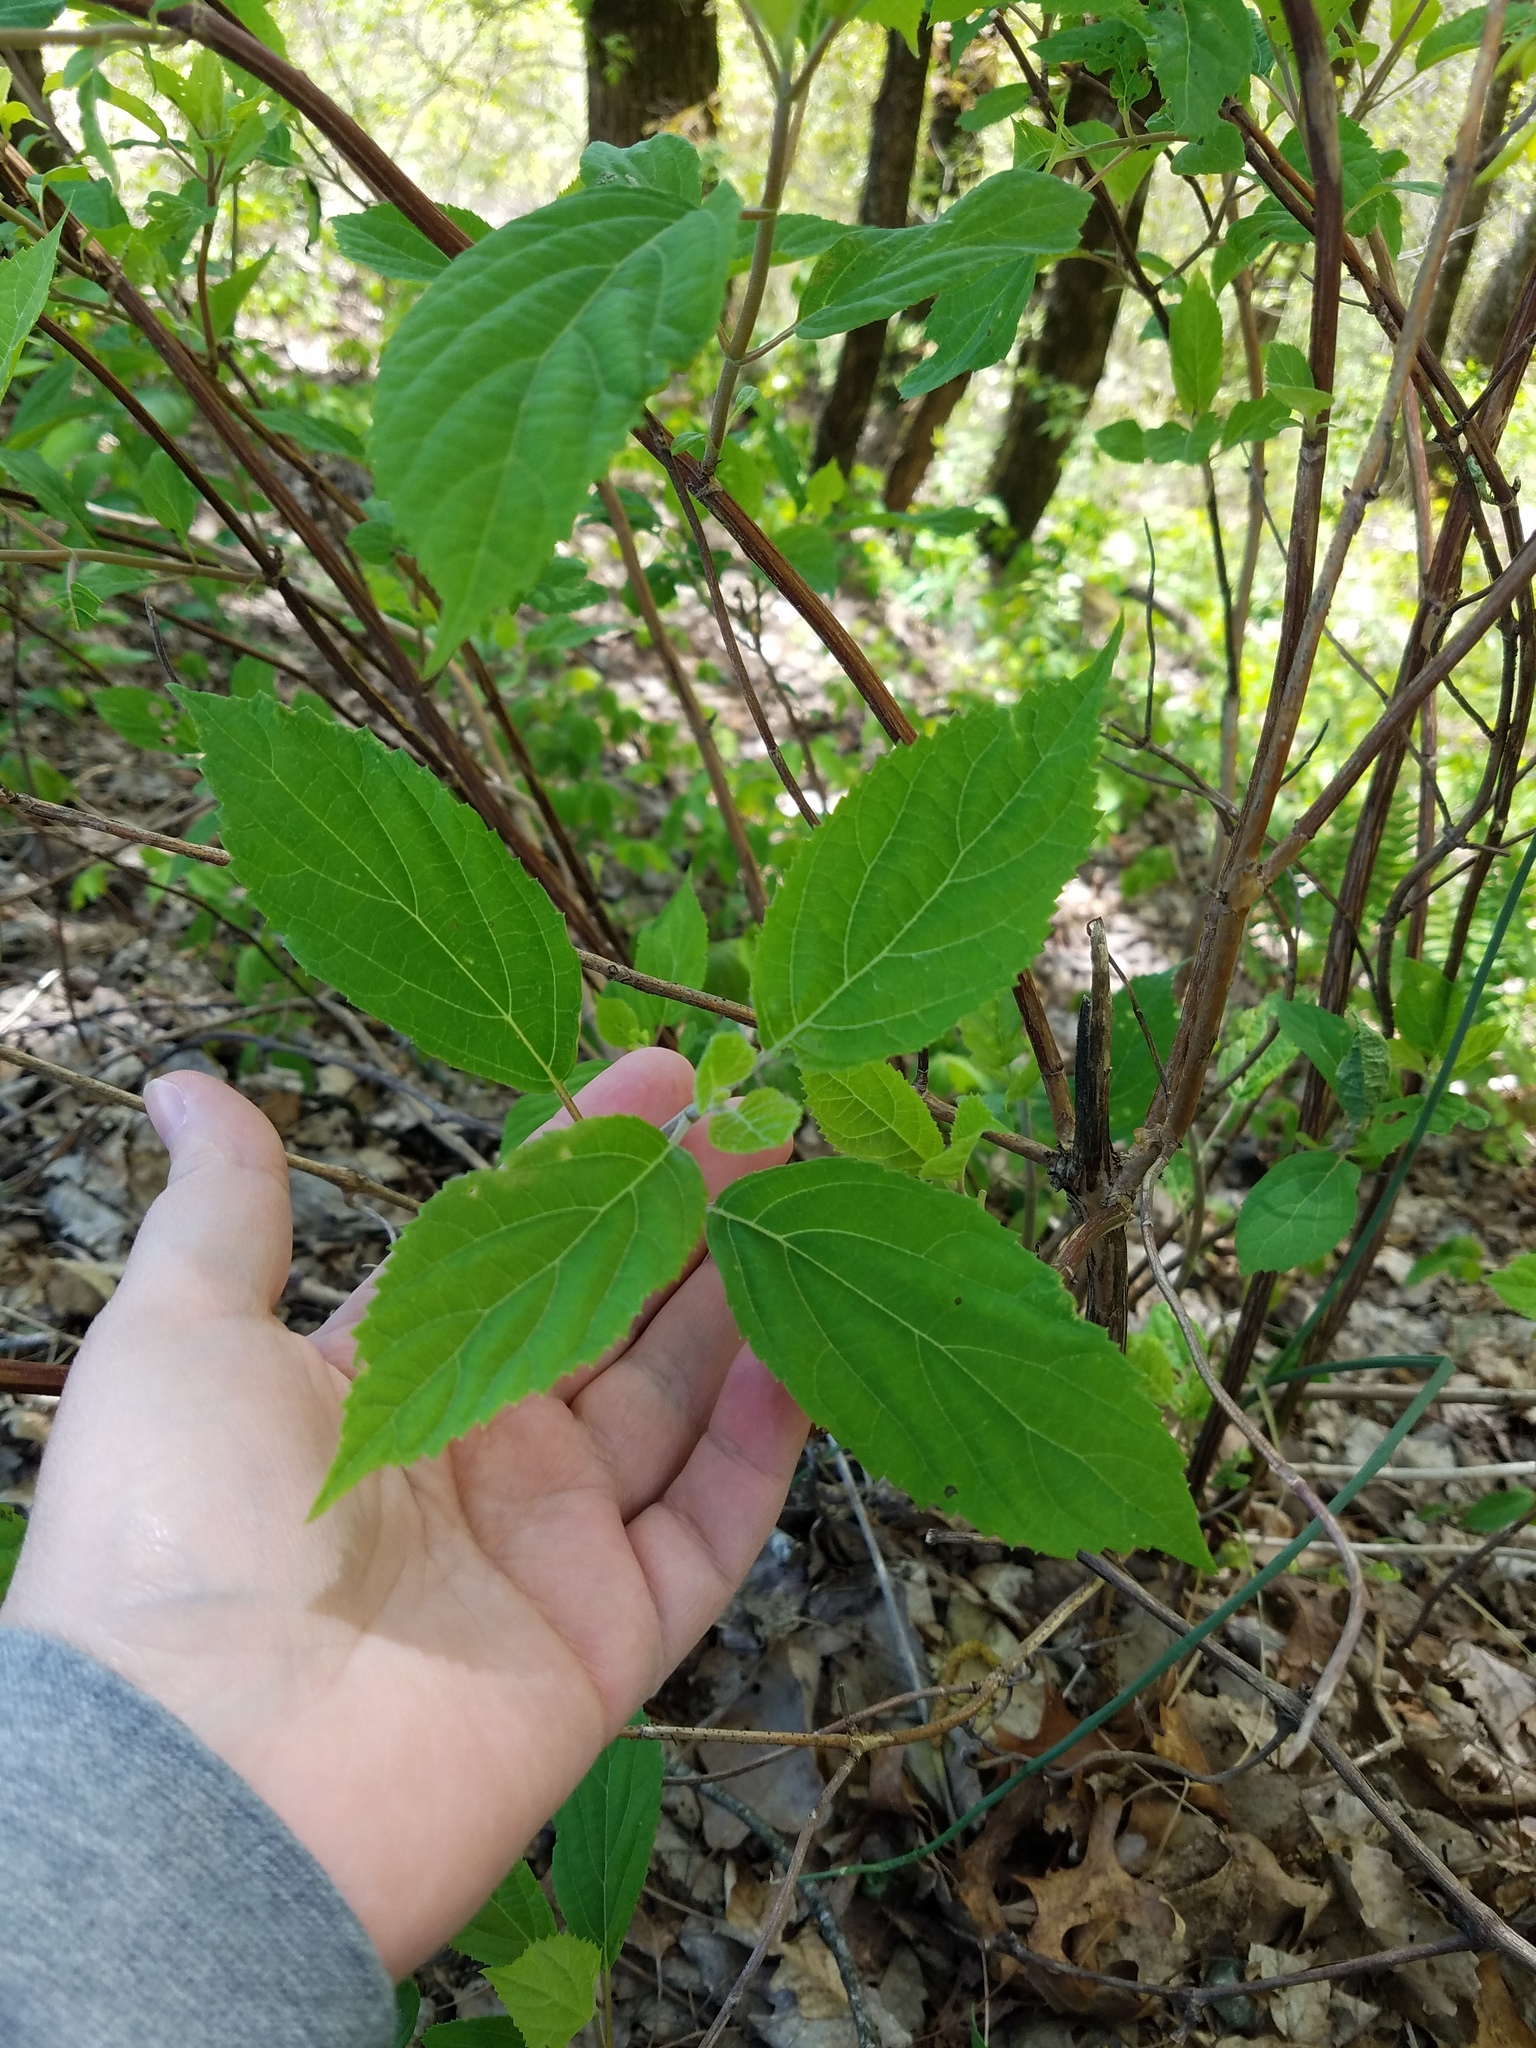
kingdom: Plantae
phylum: Tracheophyta
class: Magnoliopsida
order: Cornales
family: Hydrangeaceae
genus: Hydrangea
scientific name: Hydrangea arborescens
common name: Sevenbark
